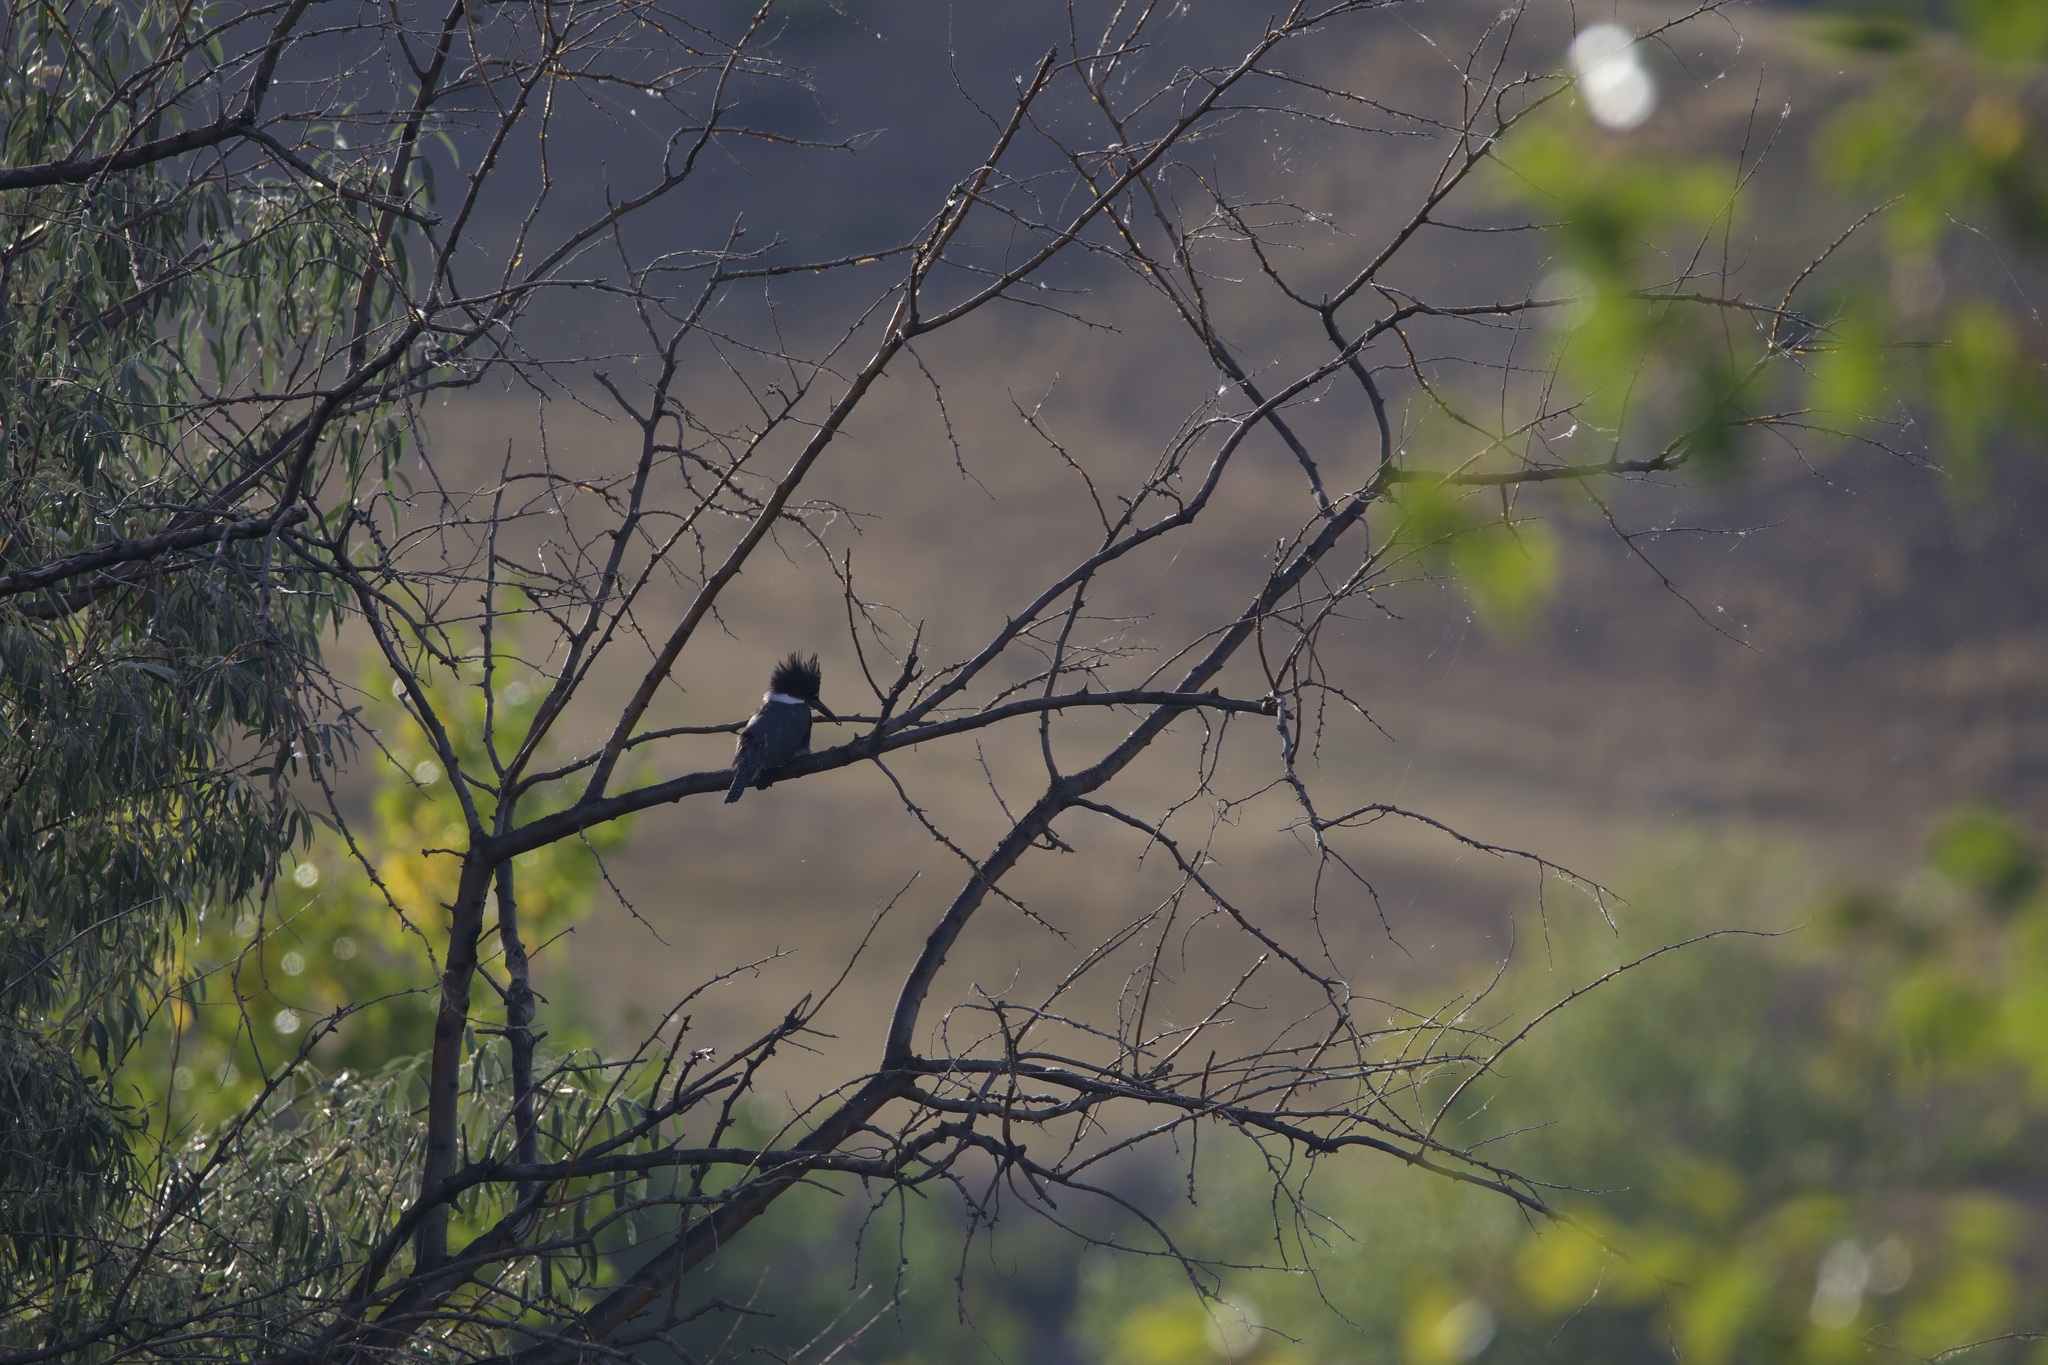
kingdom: Animalia
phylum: Chordata
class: Aves
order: Coraciiformes
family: Alcedinidae
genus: Megaceryle
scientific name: Megaceryle alcyon
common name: Belted kingfisher
